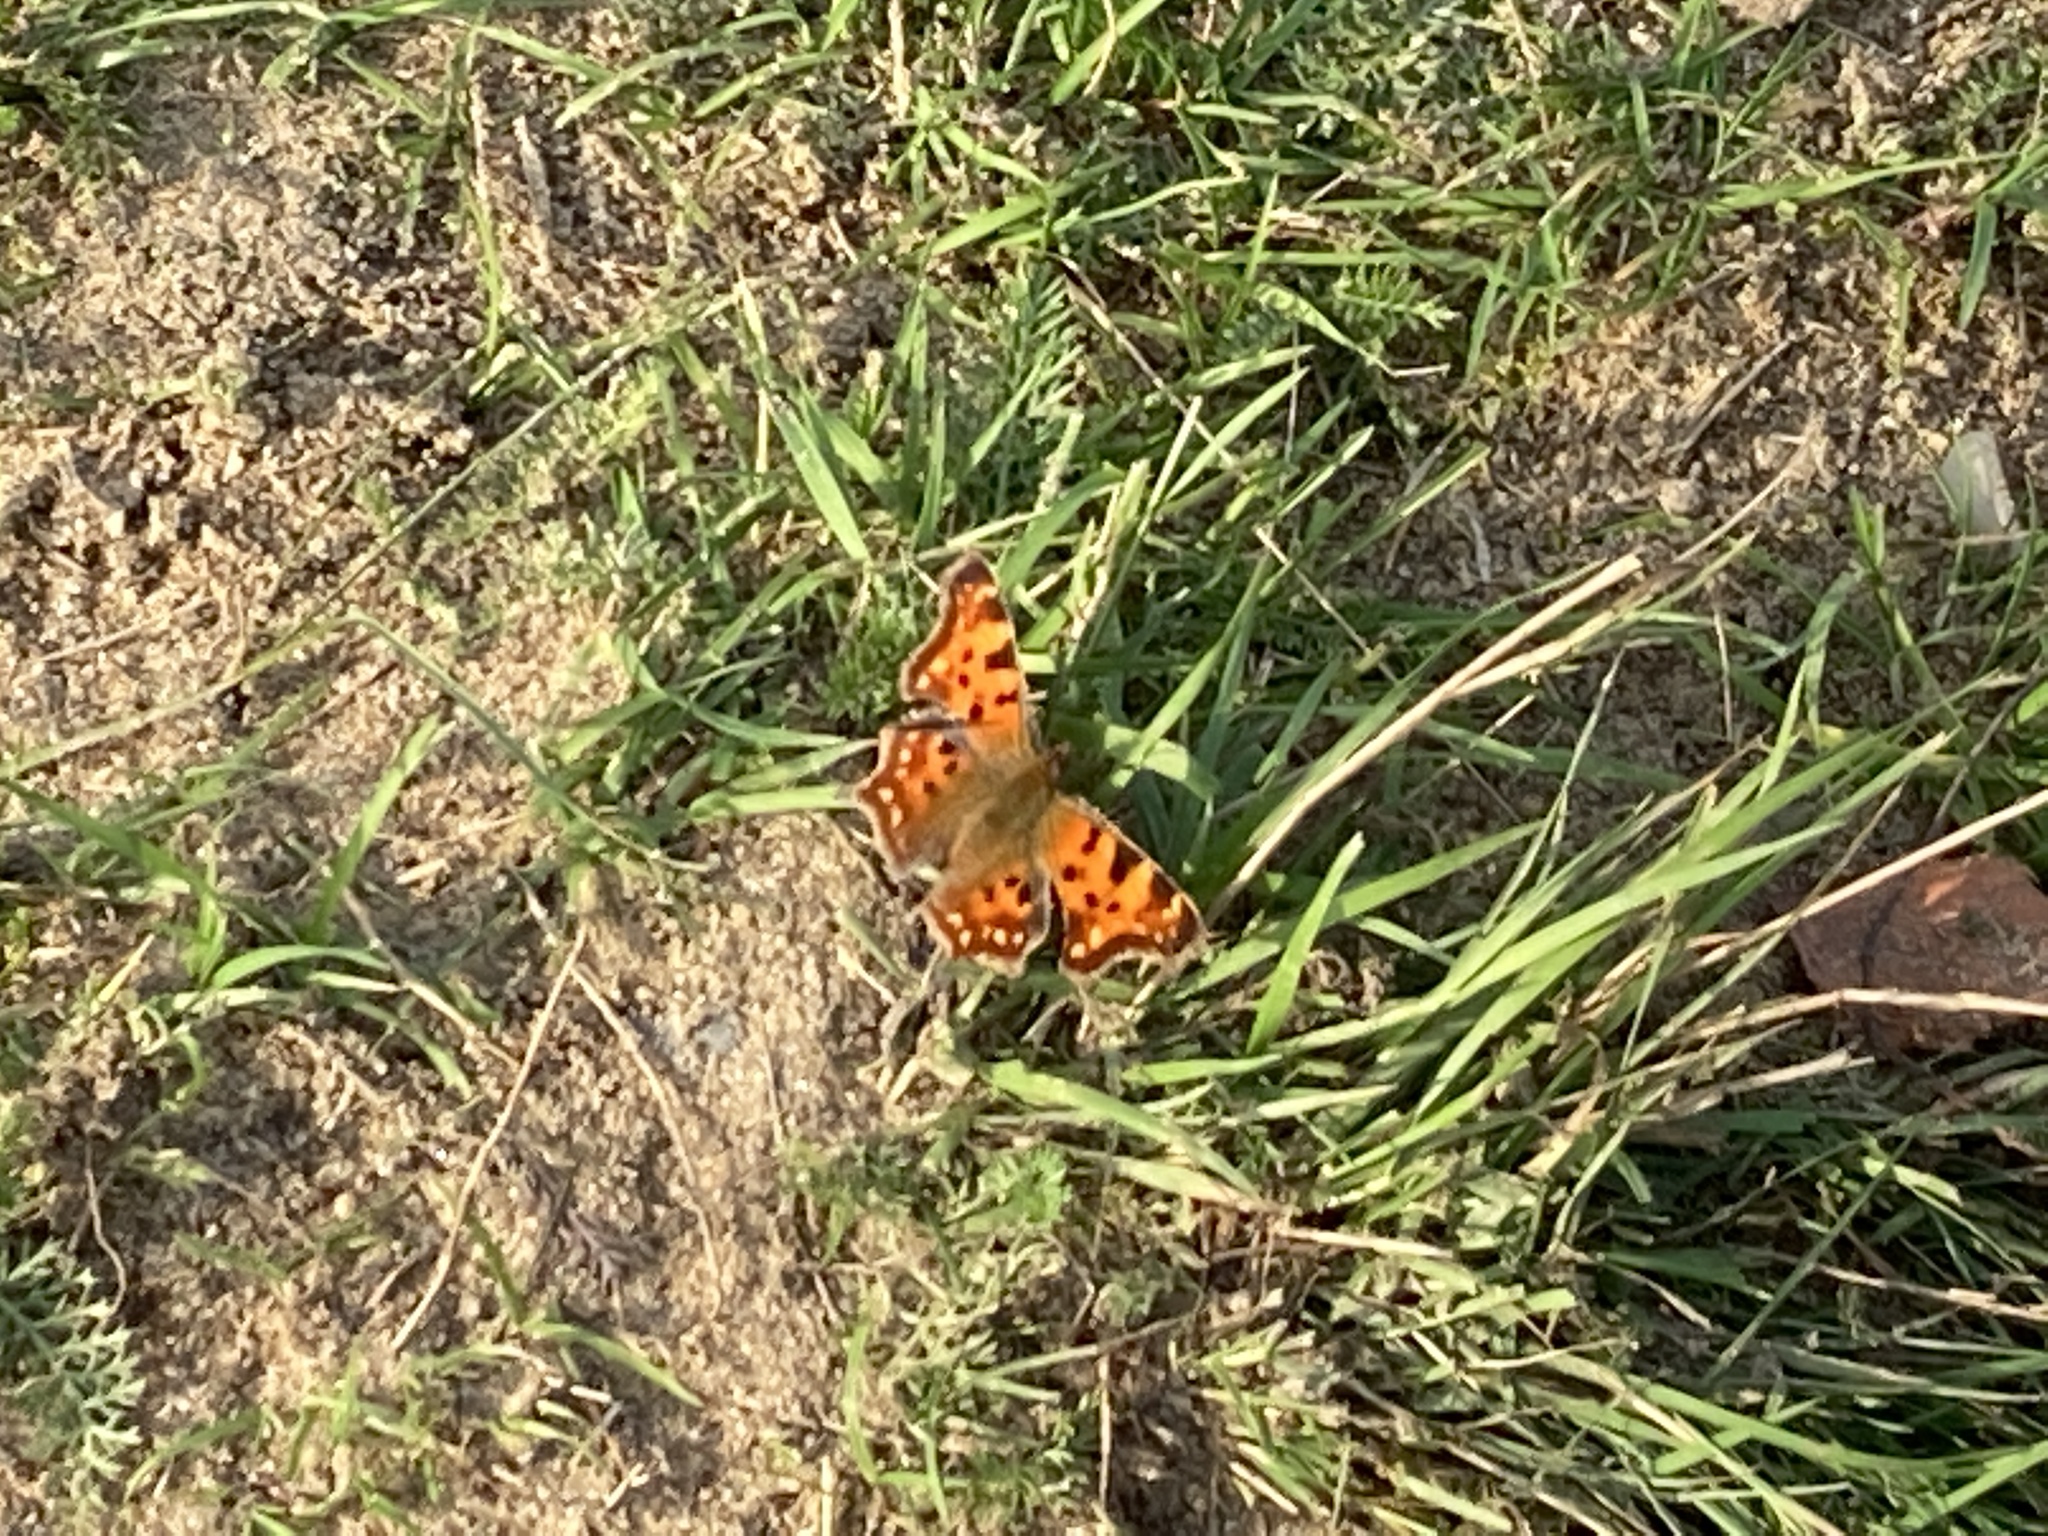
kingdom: Animalia
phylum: Arthropoda
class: Insecta
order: Lepidoptera
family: Nymphalidae
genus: Polygonia
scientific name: Polygonia c-album
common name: Comma
